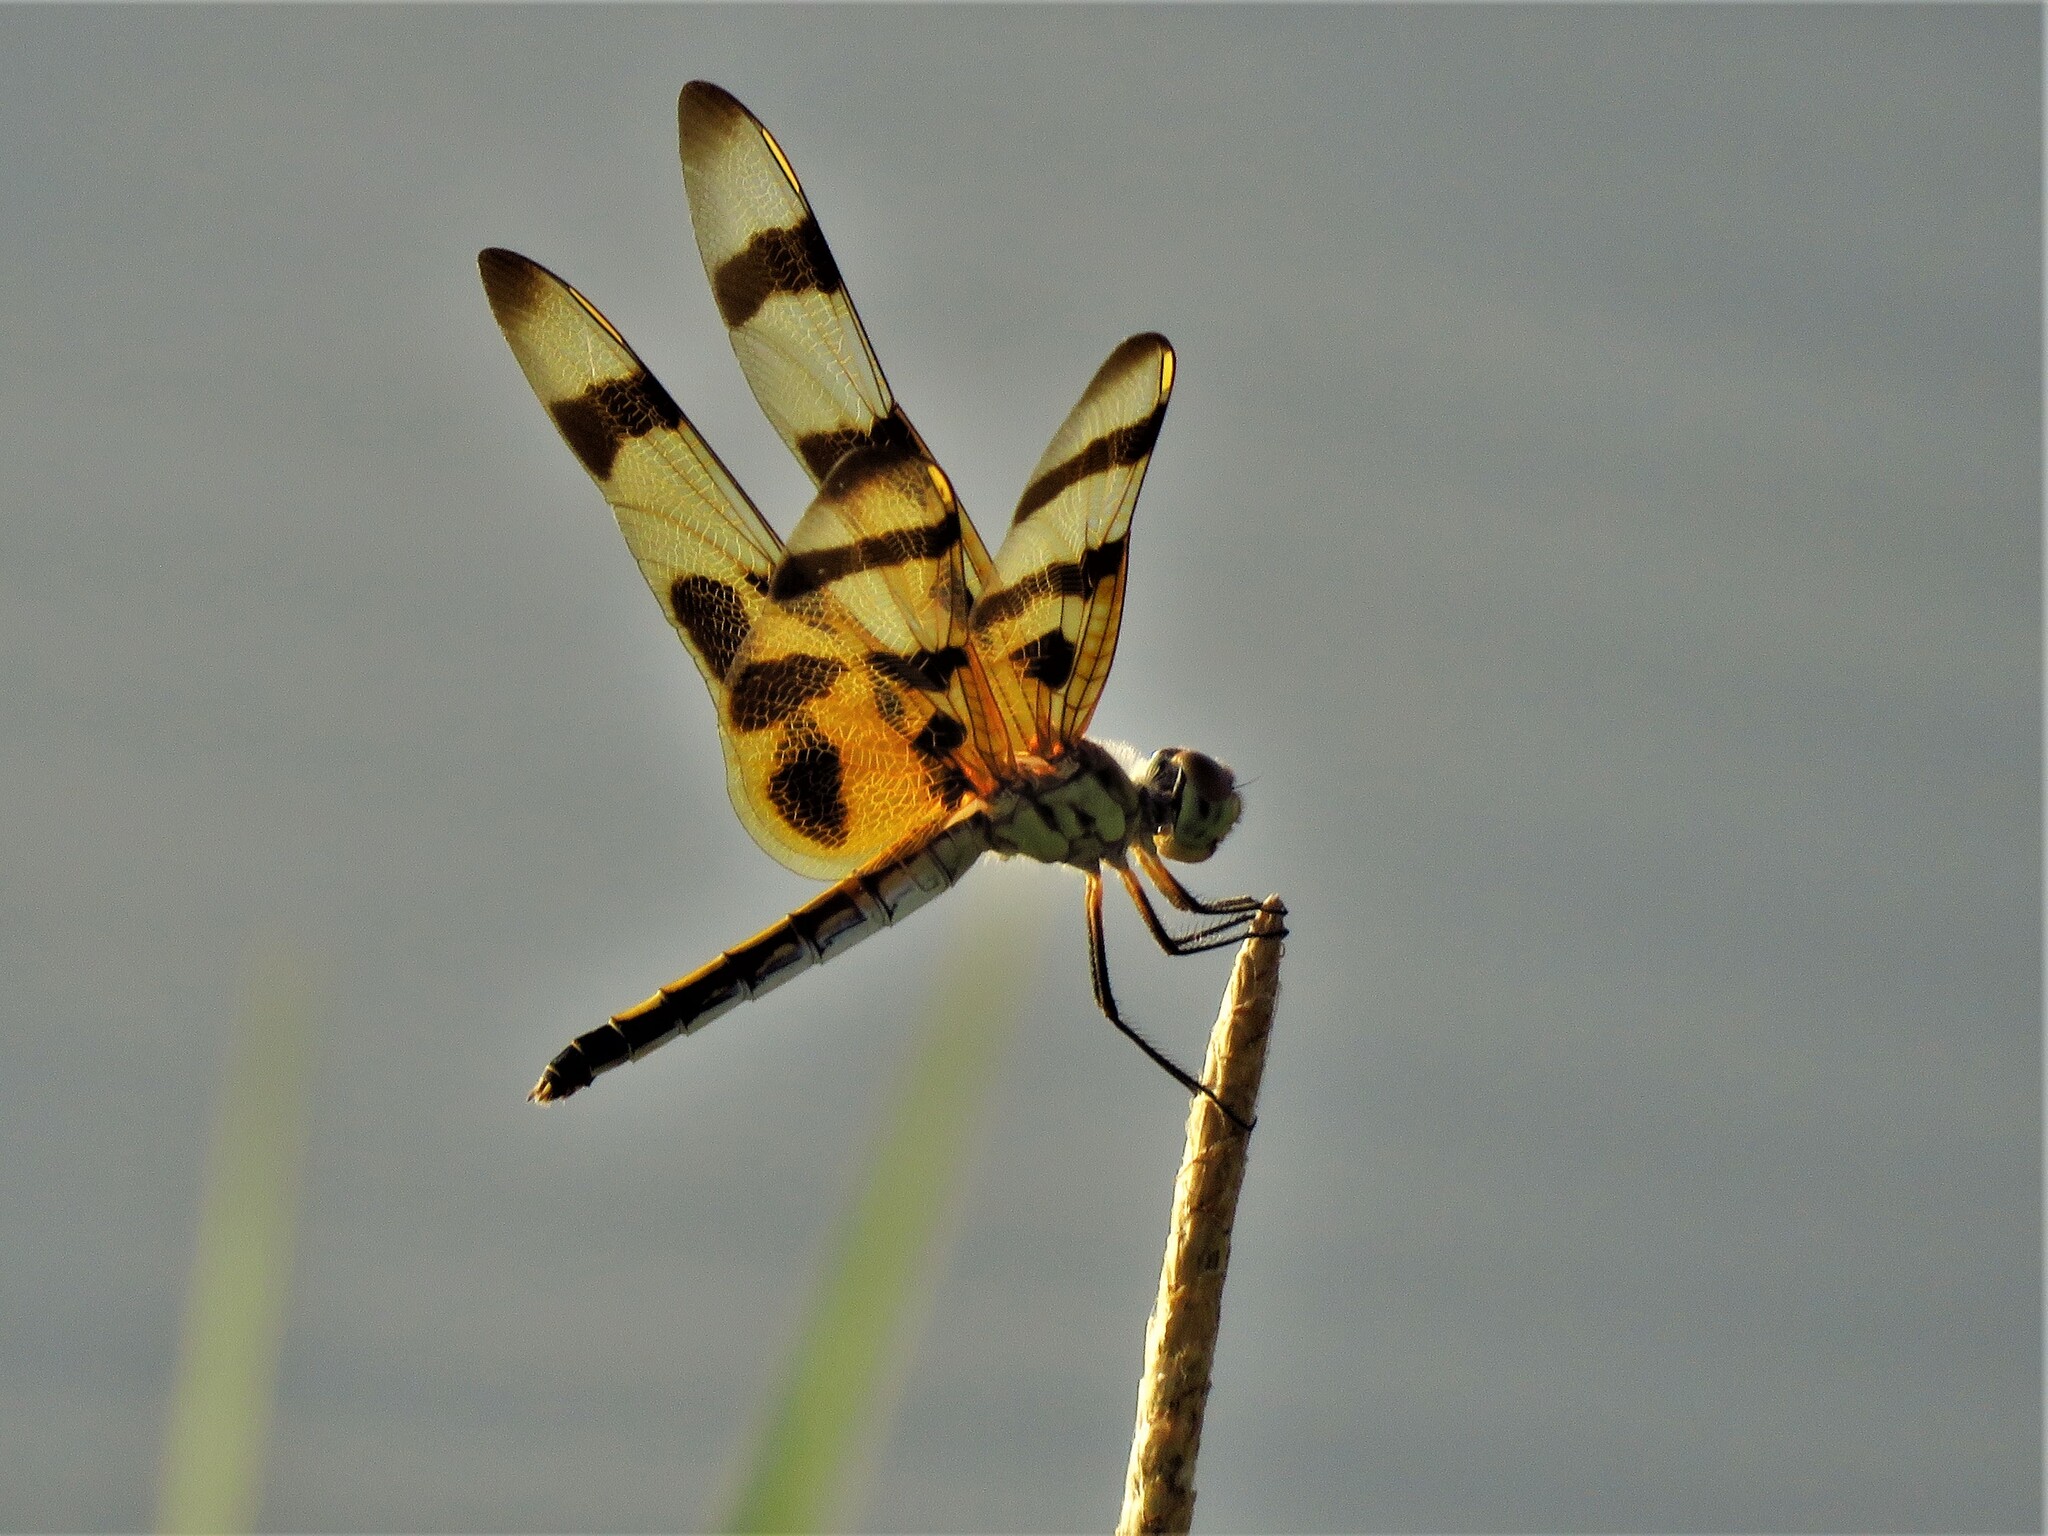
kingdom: Animalia
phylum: Arthropoda
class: Insecta
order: Odonata
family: Libellulidae
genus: Celithemis
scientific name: Celithemis eponina
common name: Halloween pennant
